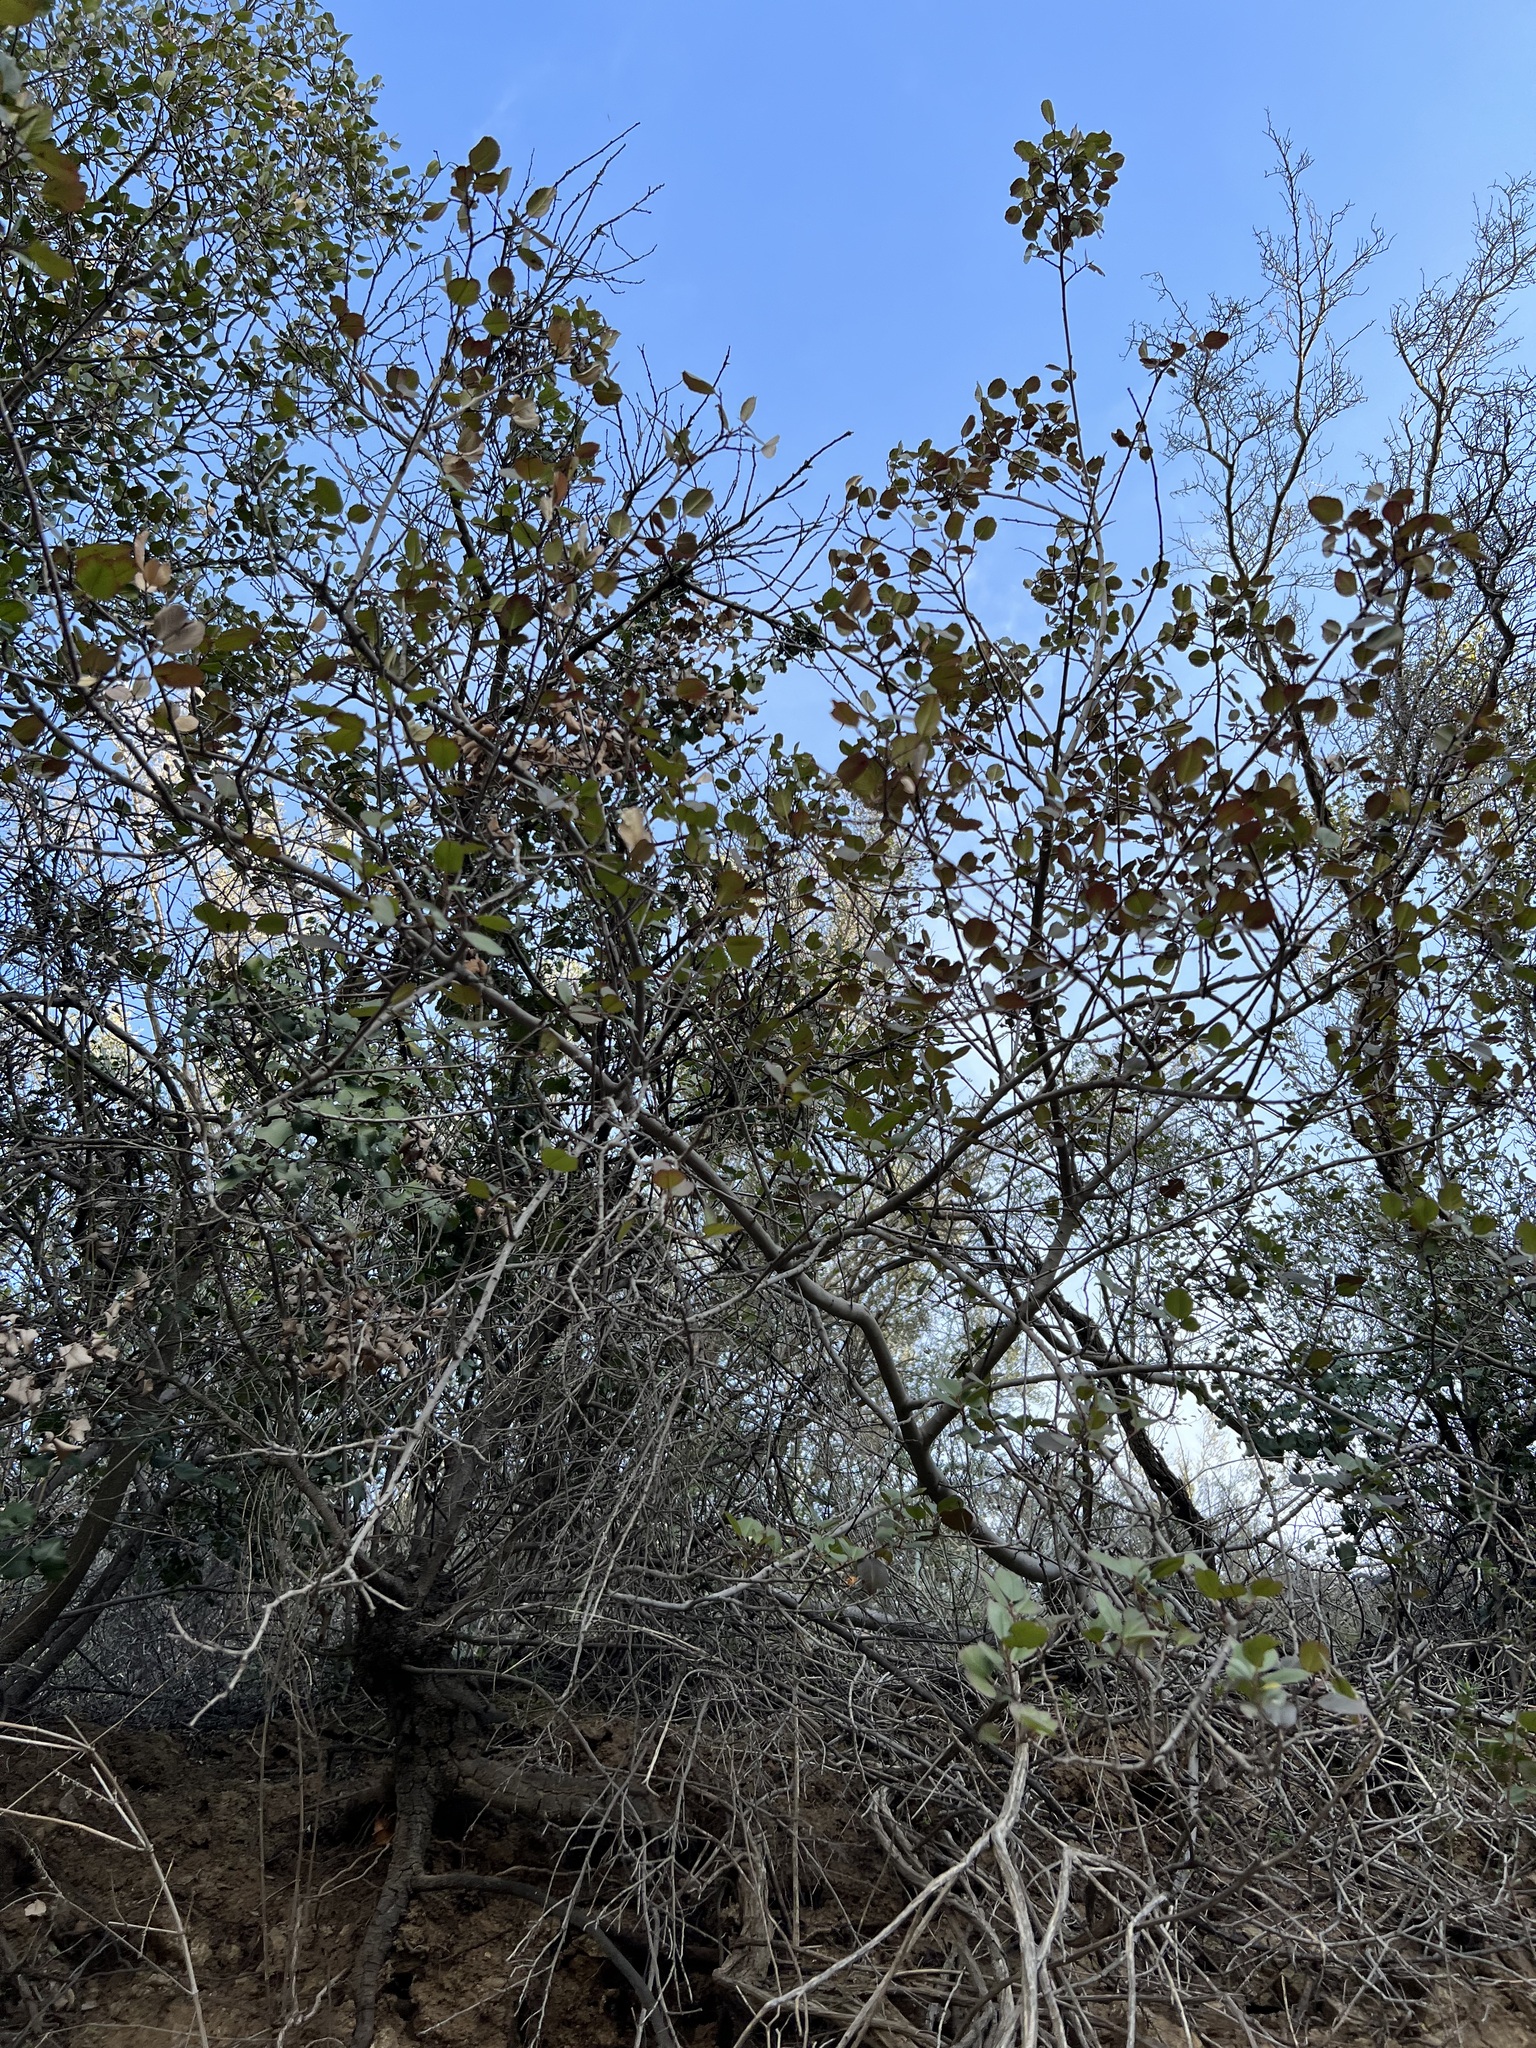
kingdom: Plantae
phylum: Tracheophyta
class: Magnoliopsida
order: Rosales
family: Rhamnaceae
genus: Endotropis
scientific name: Endotropis crocea
